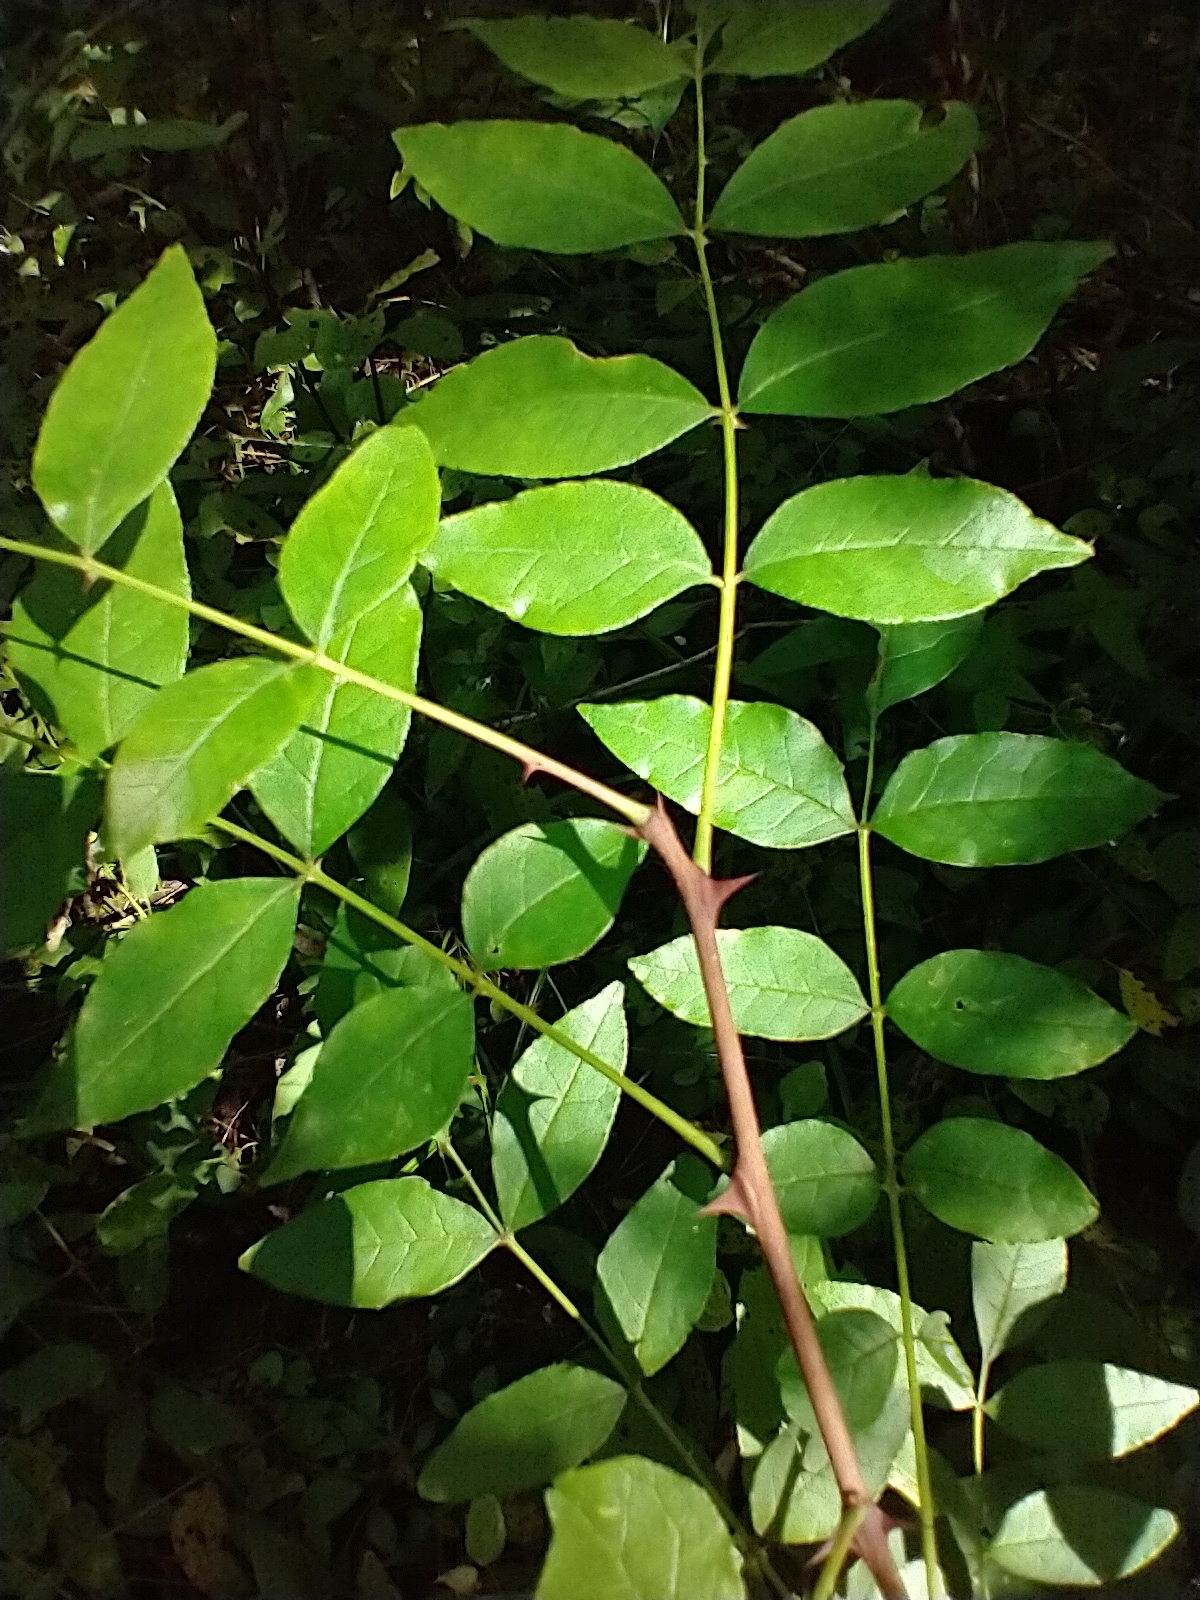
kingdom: Plantae
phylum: Tracheophyta
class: Magnoliopsida
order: Sapindales
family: Rutaceae
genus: Zanthoxylum
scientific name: Zanthoxylum americanum
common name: Northern prickly-ash
